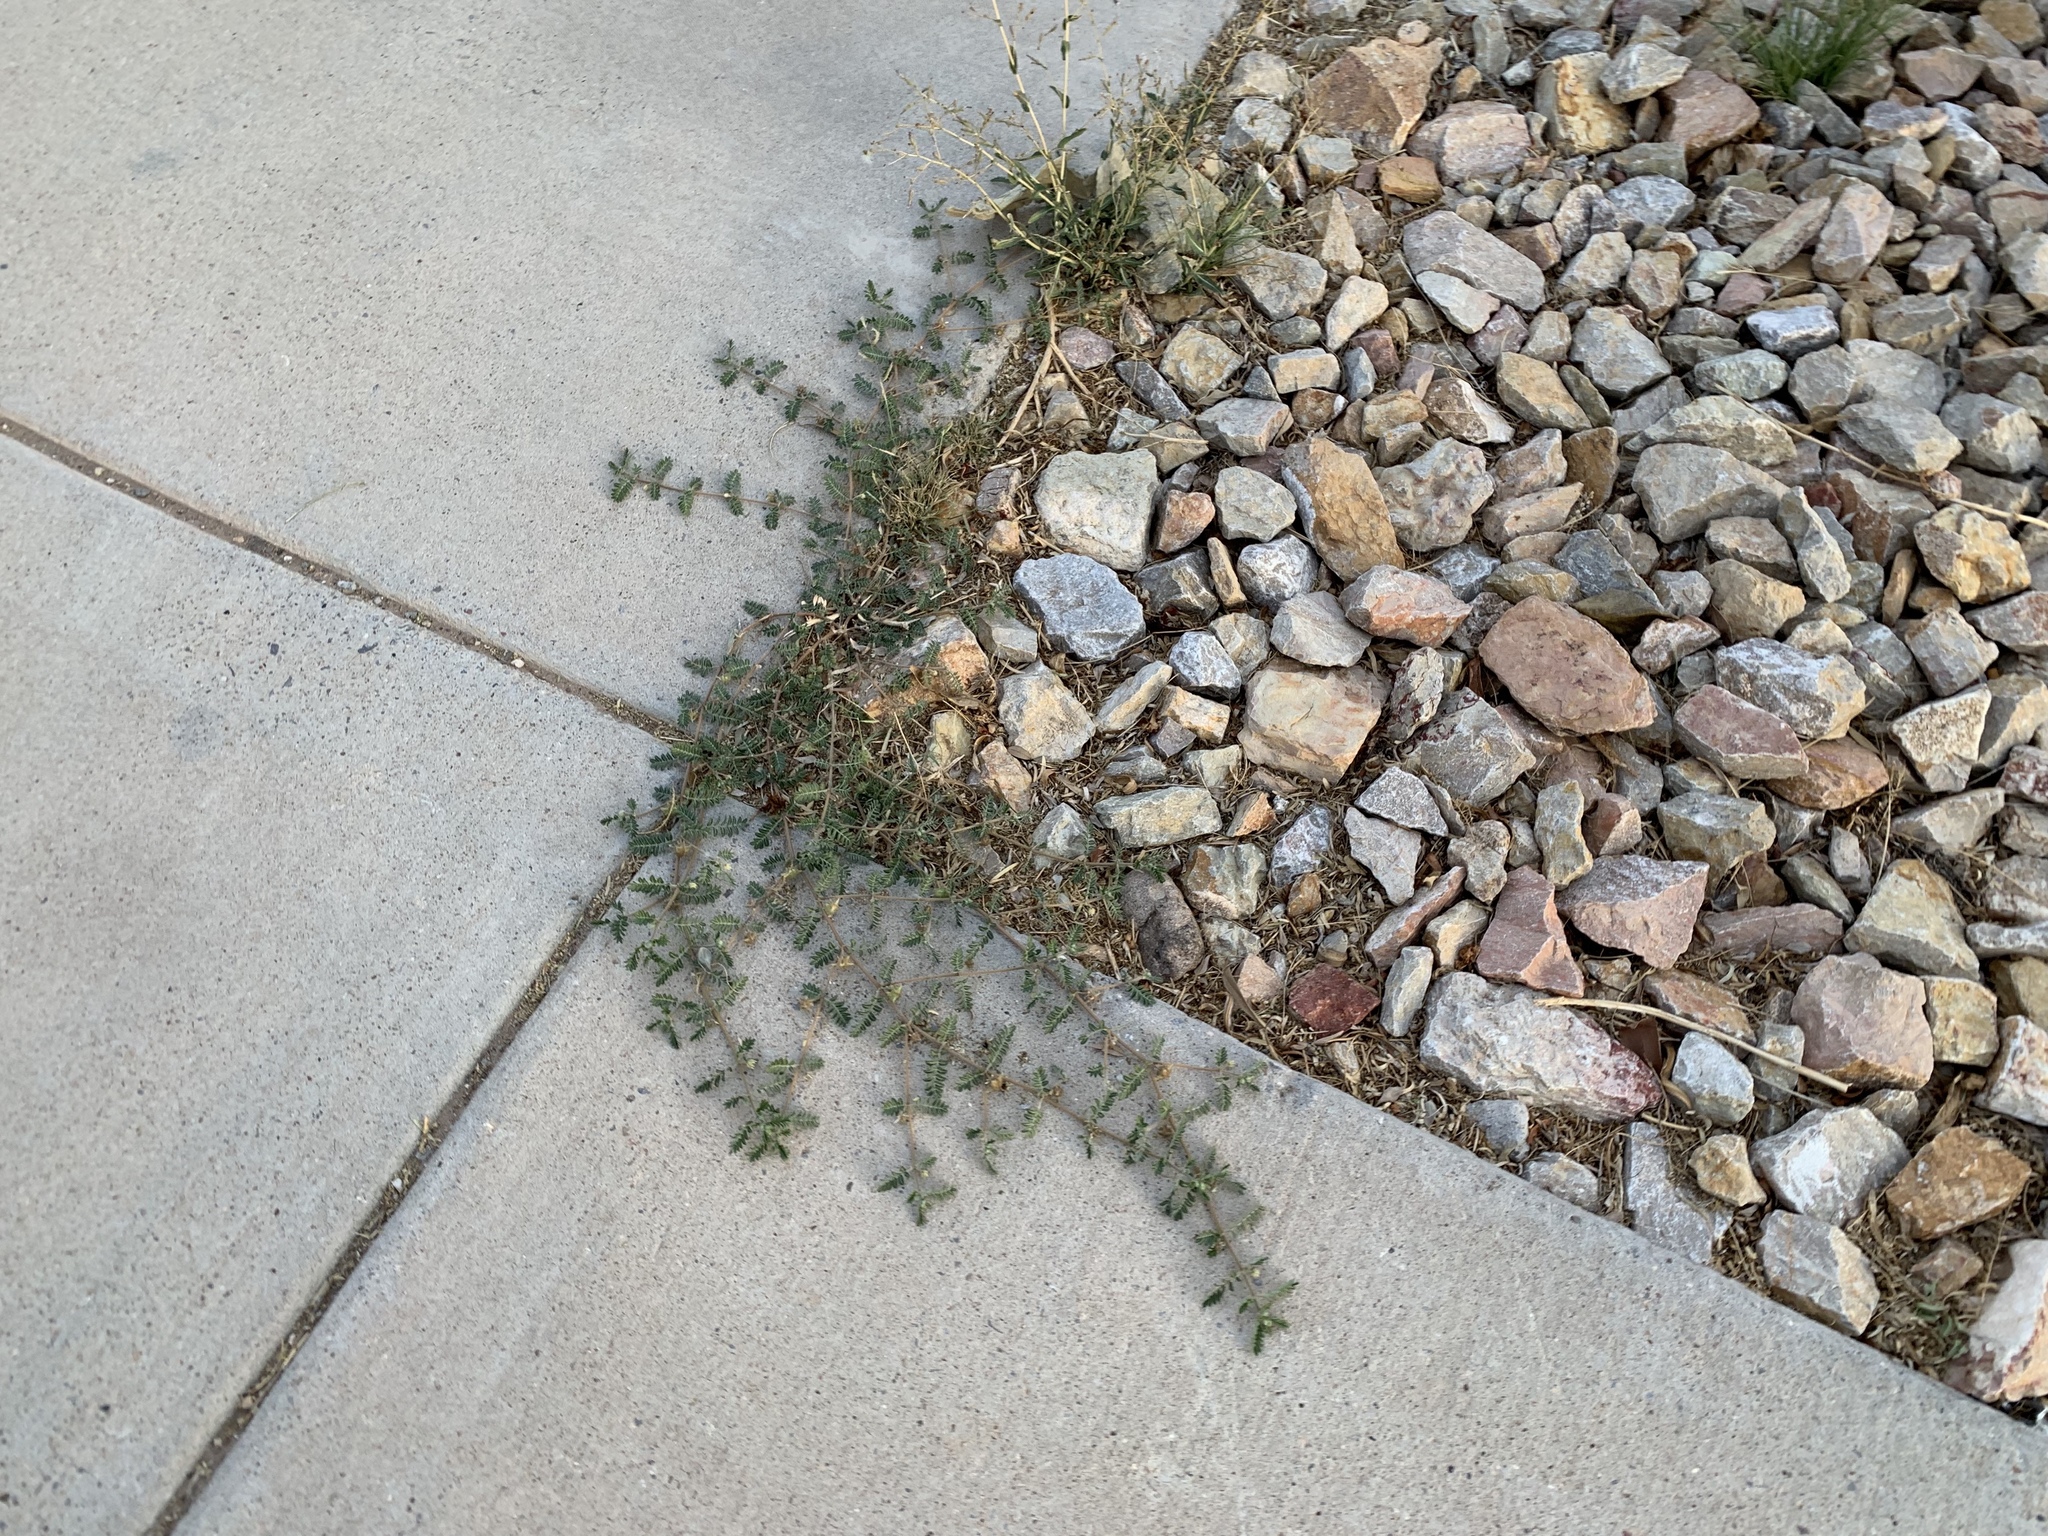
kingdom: Plantae
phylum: Tracheophyta
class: Magnoliopsida
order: Zygophyllales
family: Zygophyllaceae
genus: Tribulus
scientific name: Tribulus terrestris
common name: Puncturevine
